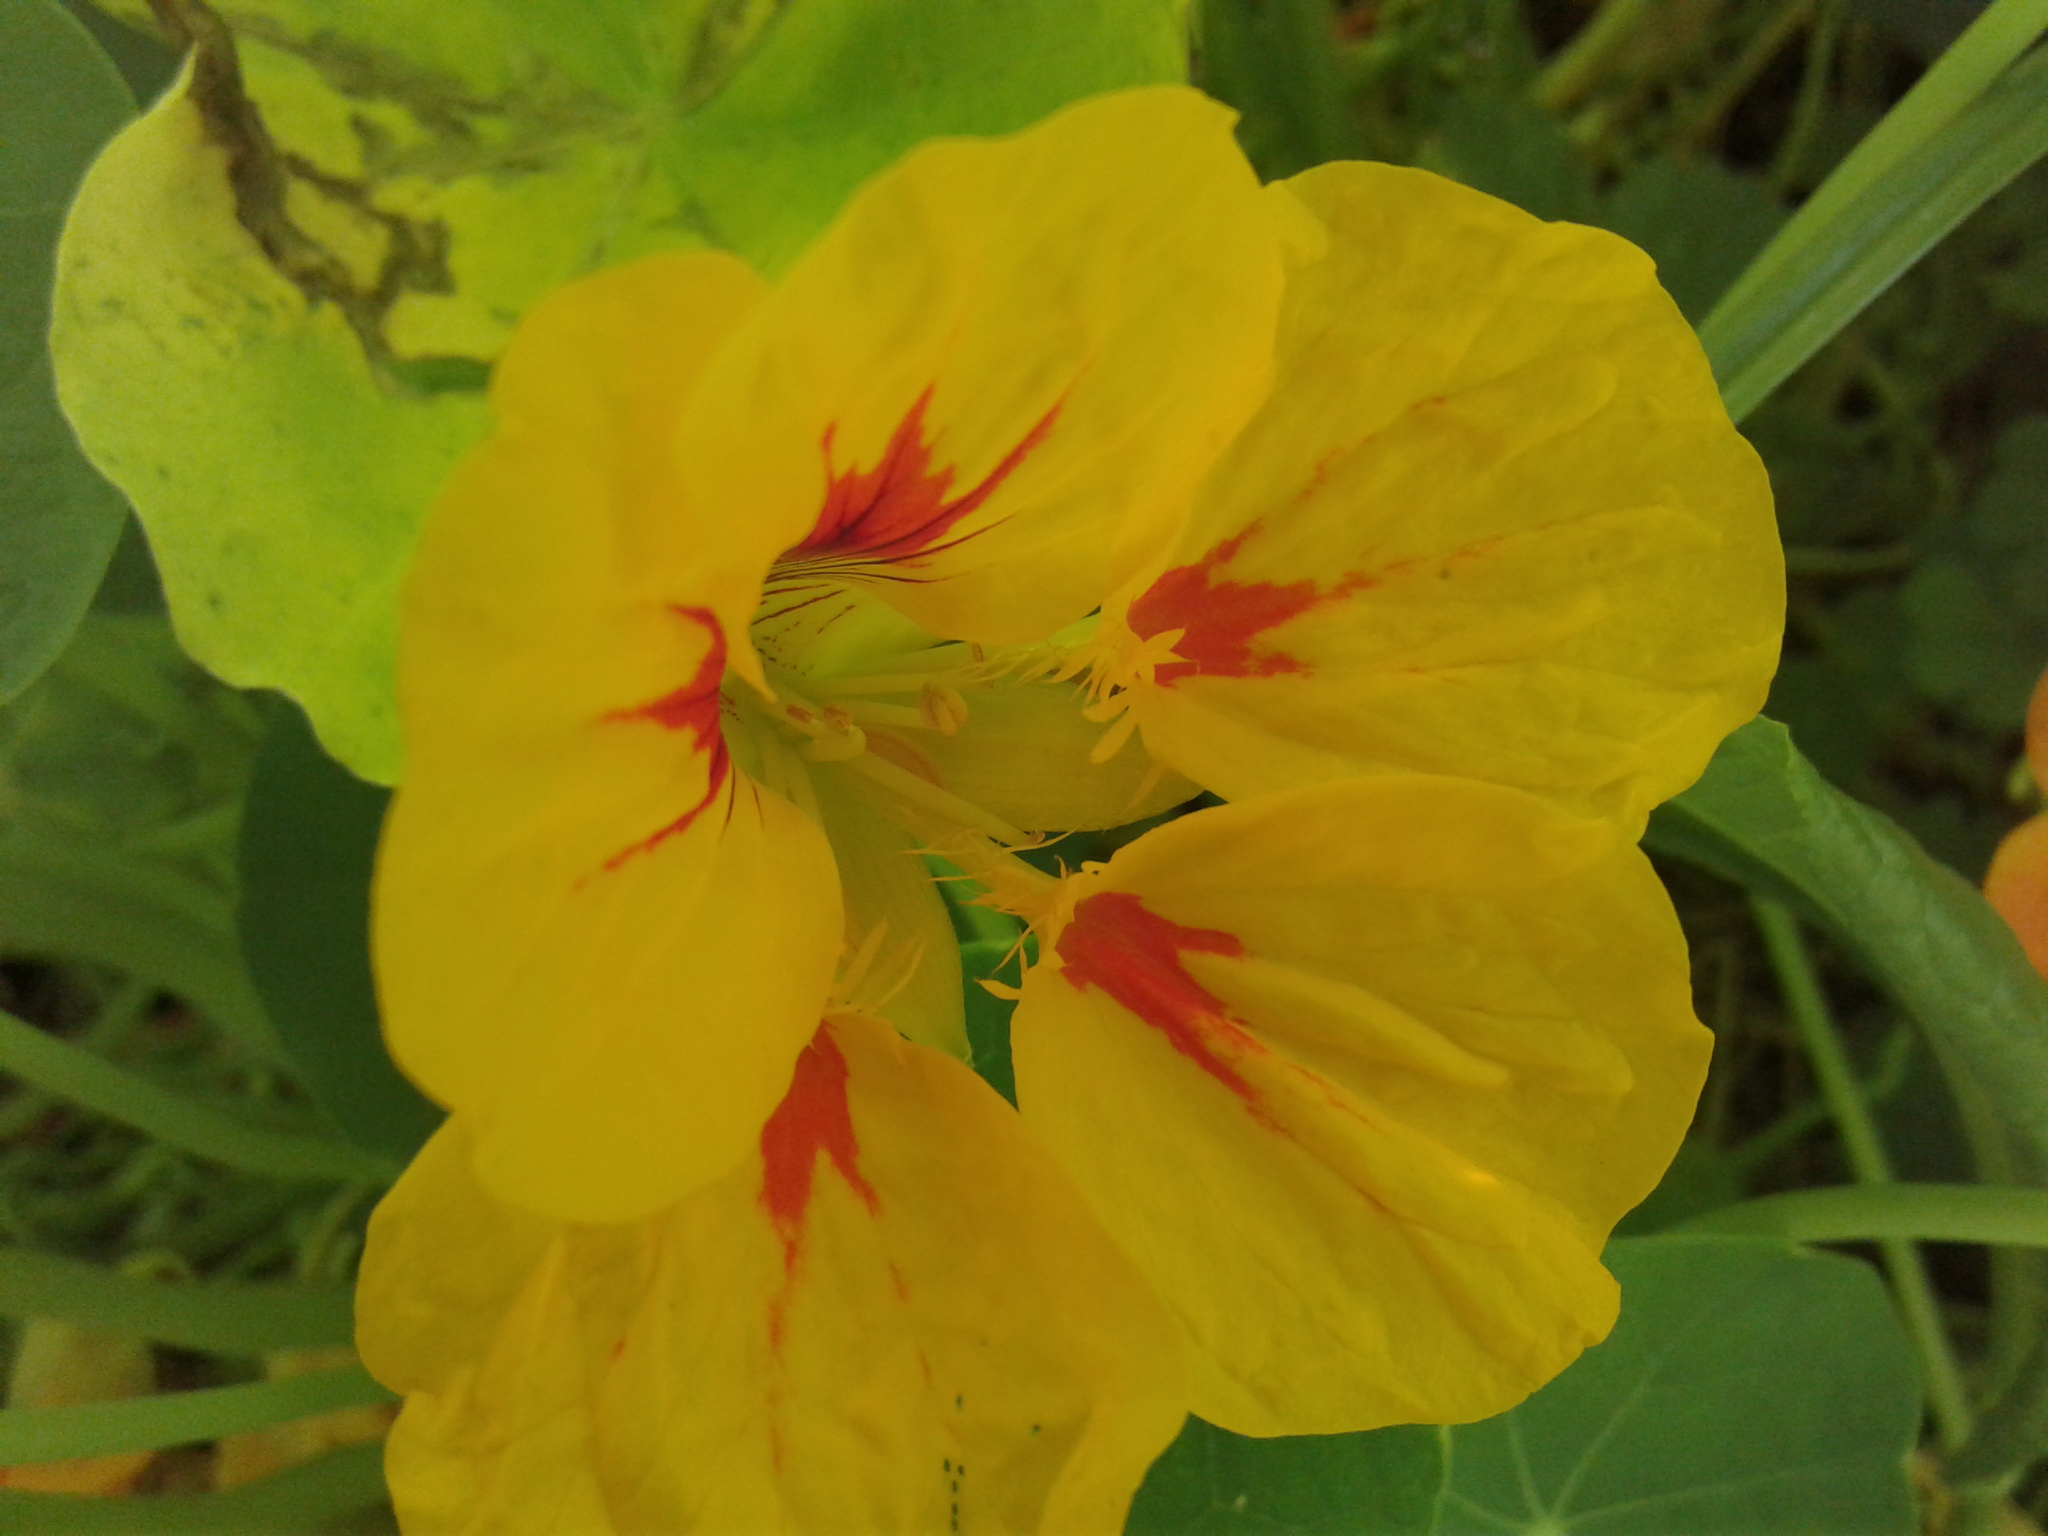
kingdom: Plantae
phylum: Tracheophyta
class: Magnoliopsida
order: Brassicales
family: Tropaeolaceae
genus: Tropaeolum
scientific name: Tropaeolum majus
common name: Nasturtium
